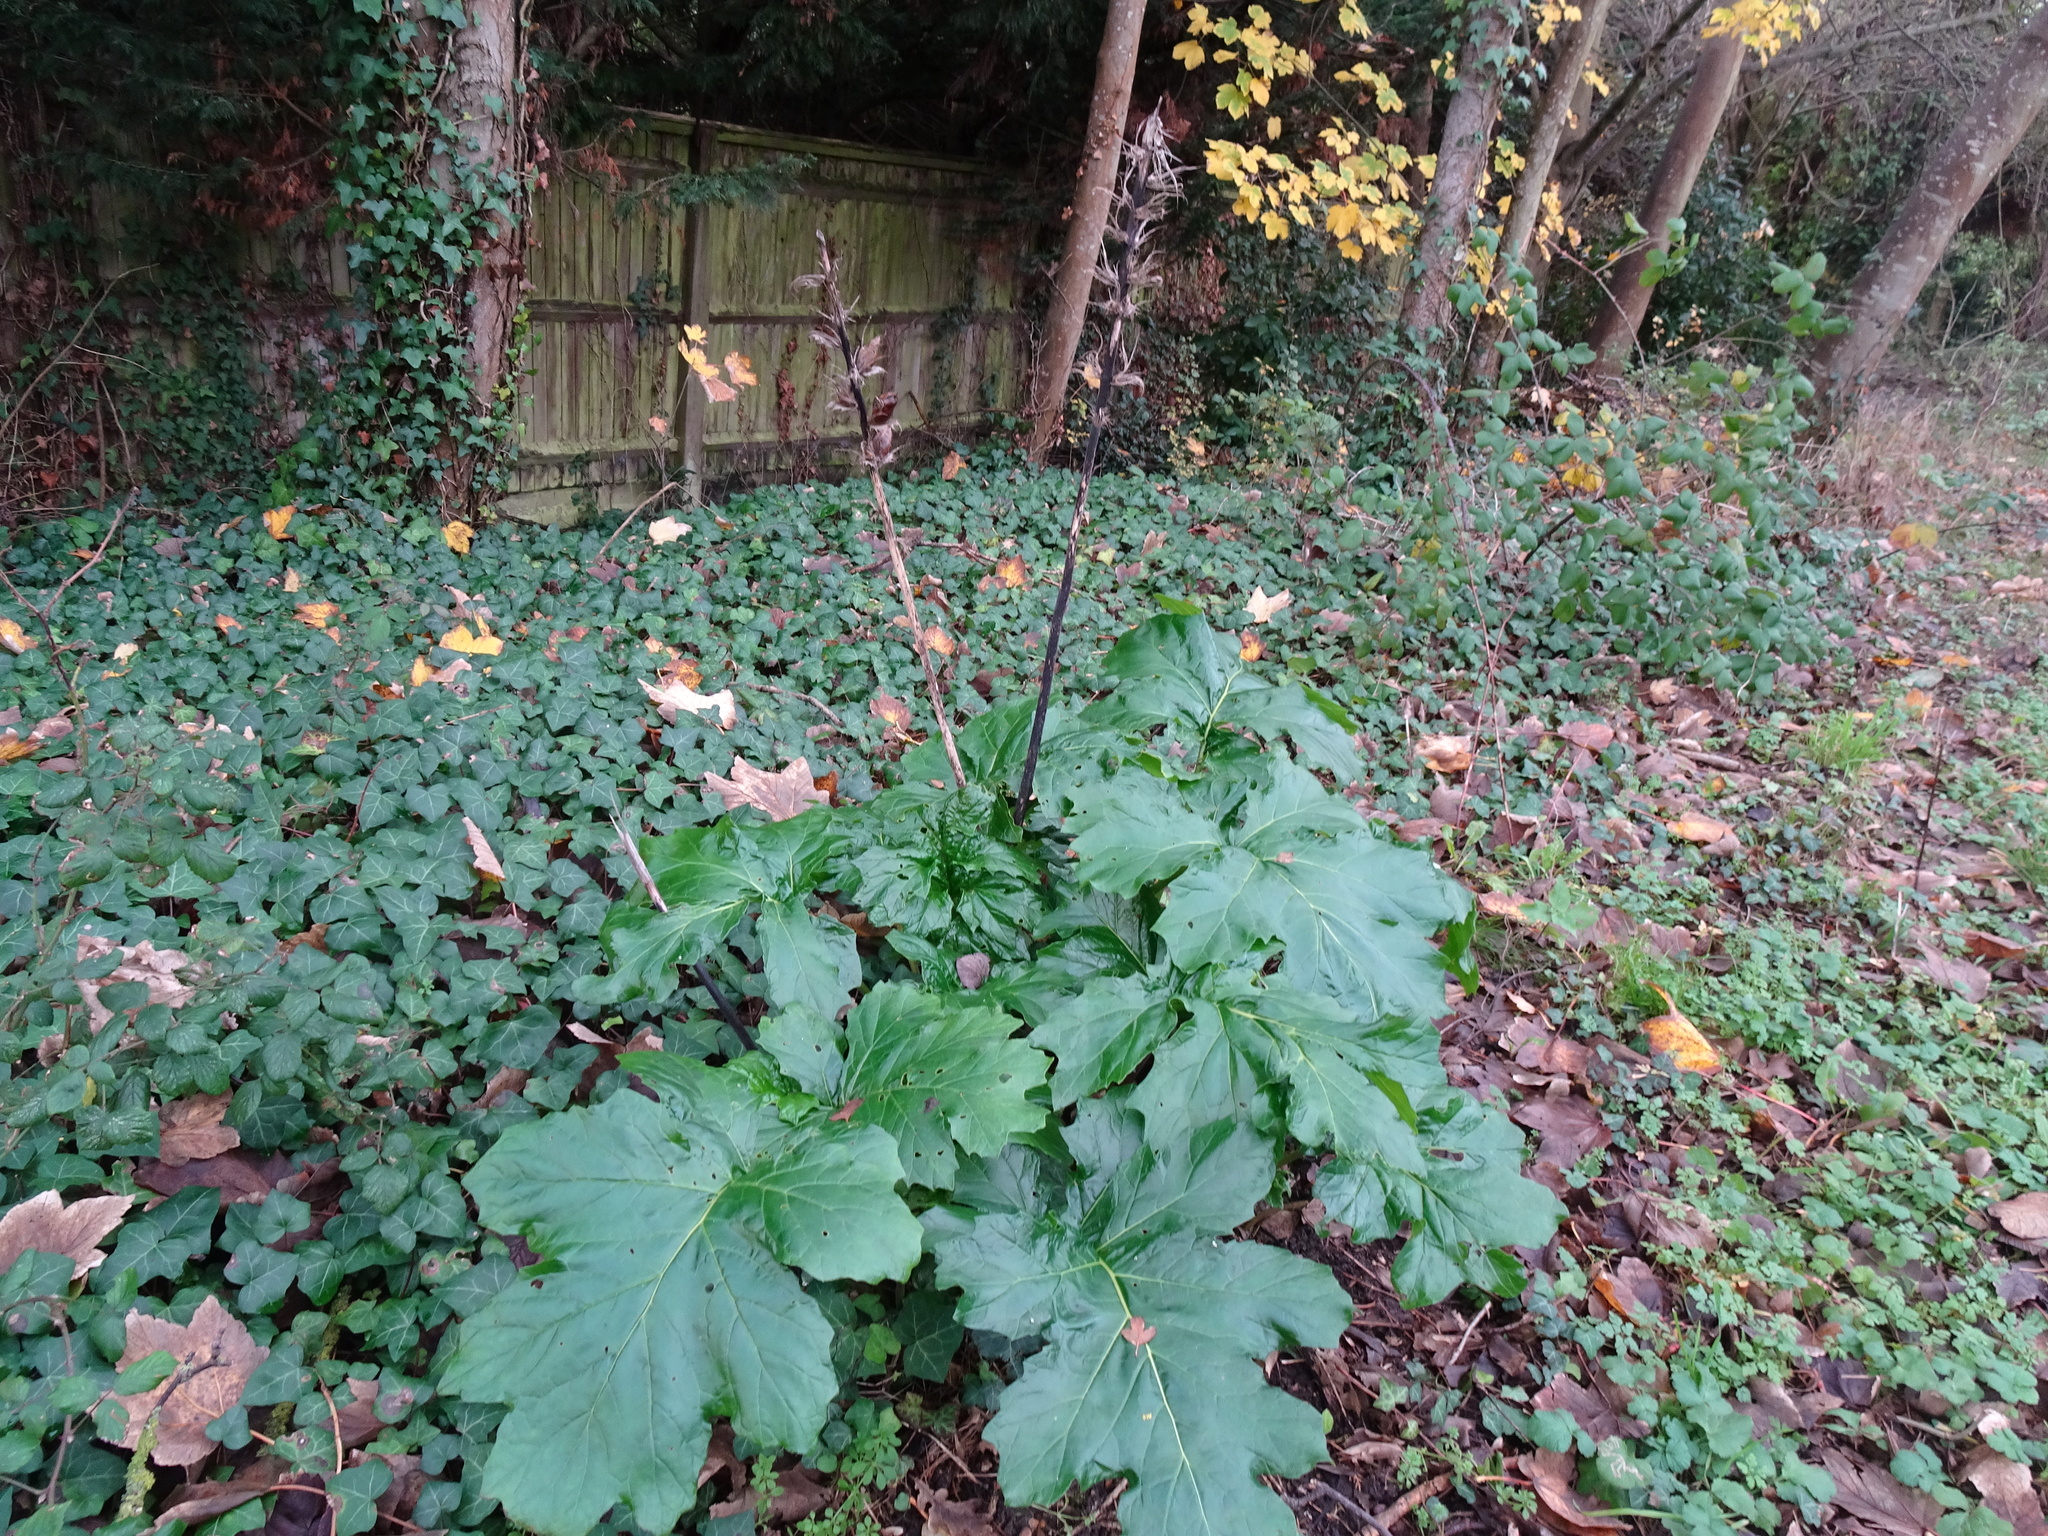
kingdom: Plantae
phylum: Tracheophyta
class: Magnoliopsida
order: Lamiales
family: Acanthaceae
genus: Acanthus
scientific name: Acanthus mollis
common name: Bear's-breech
